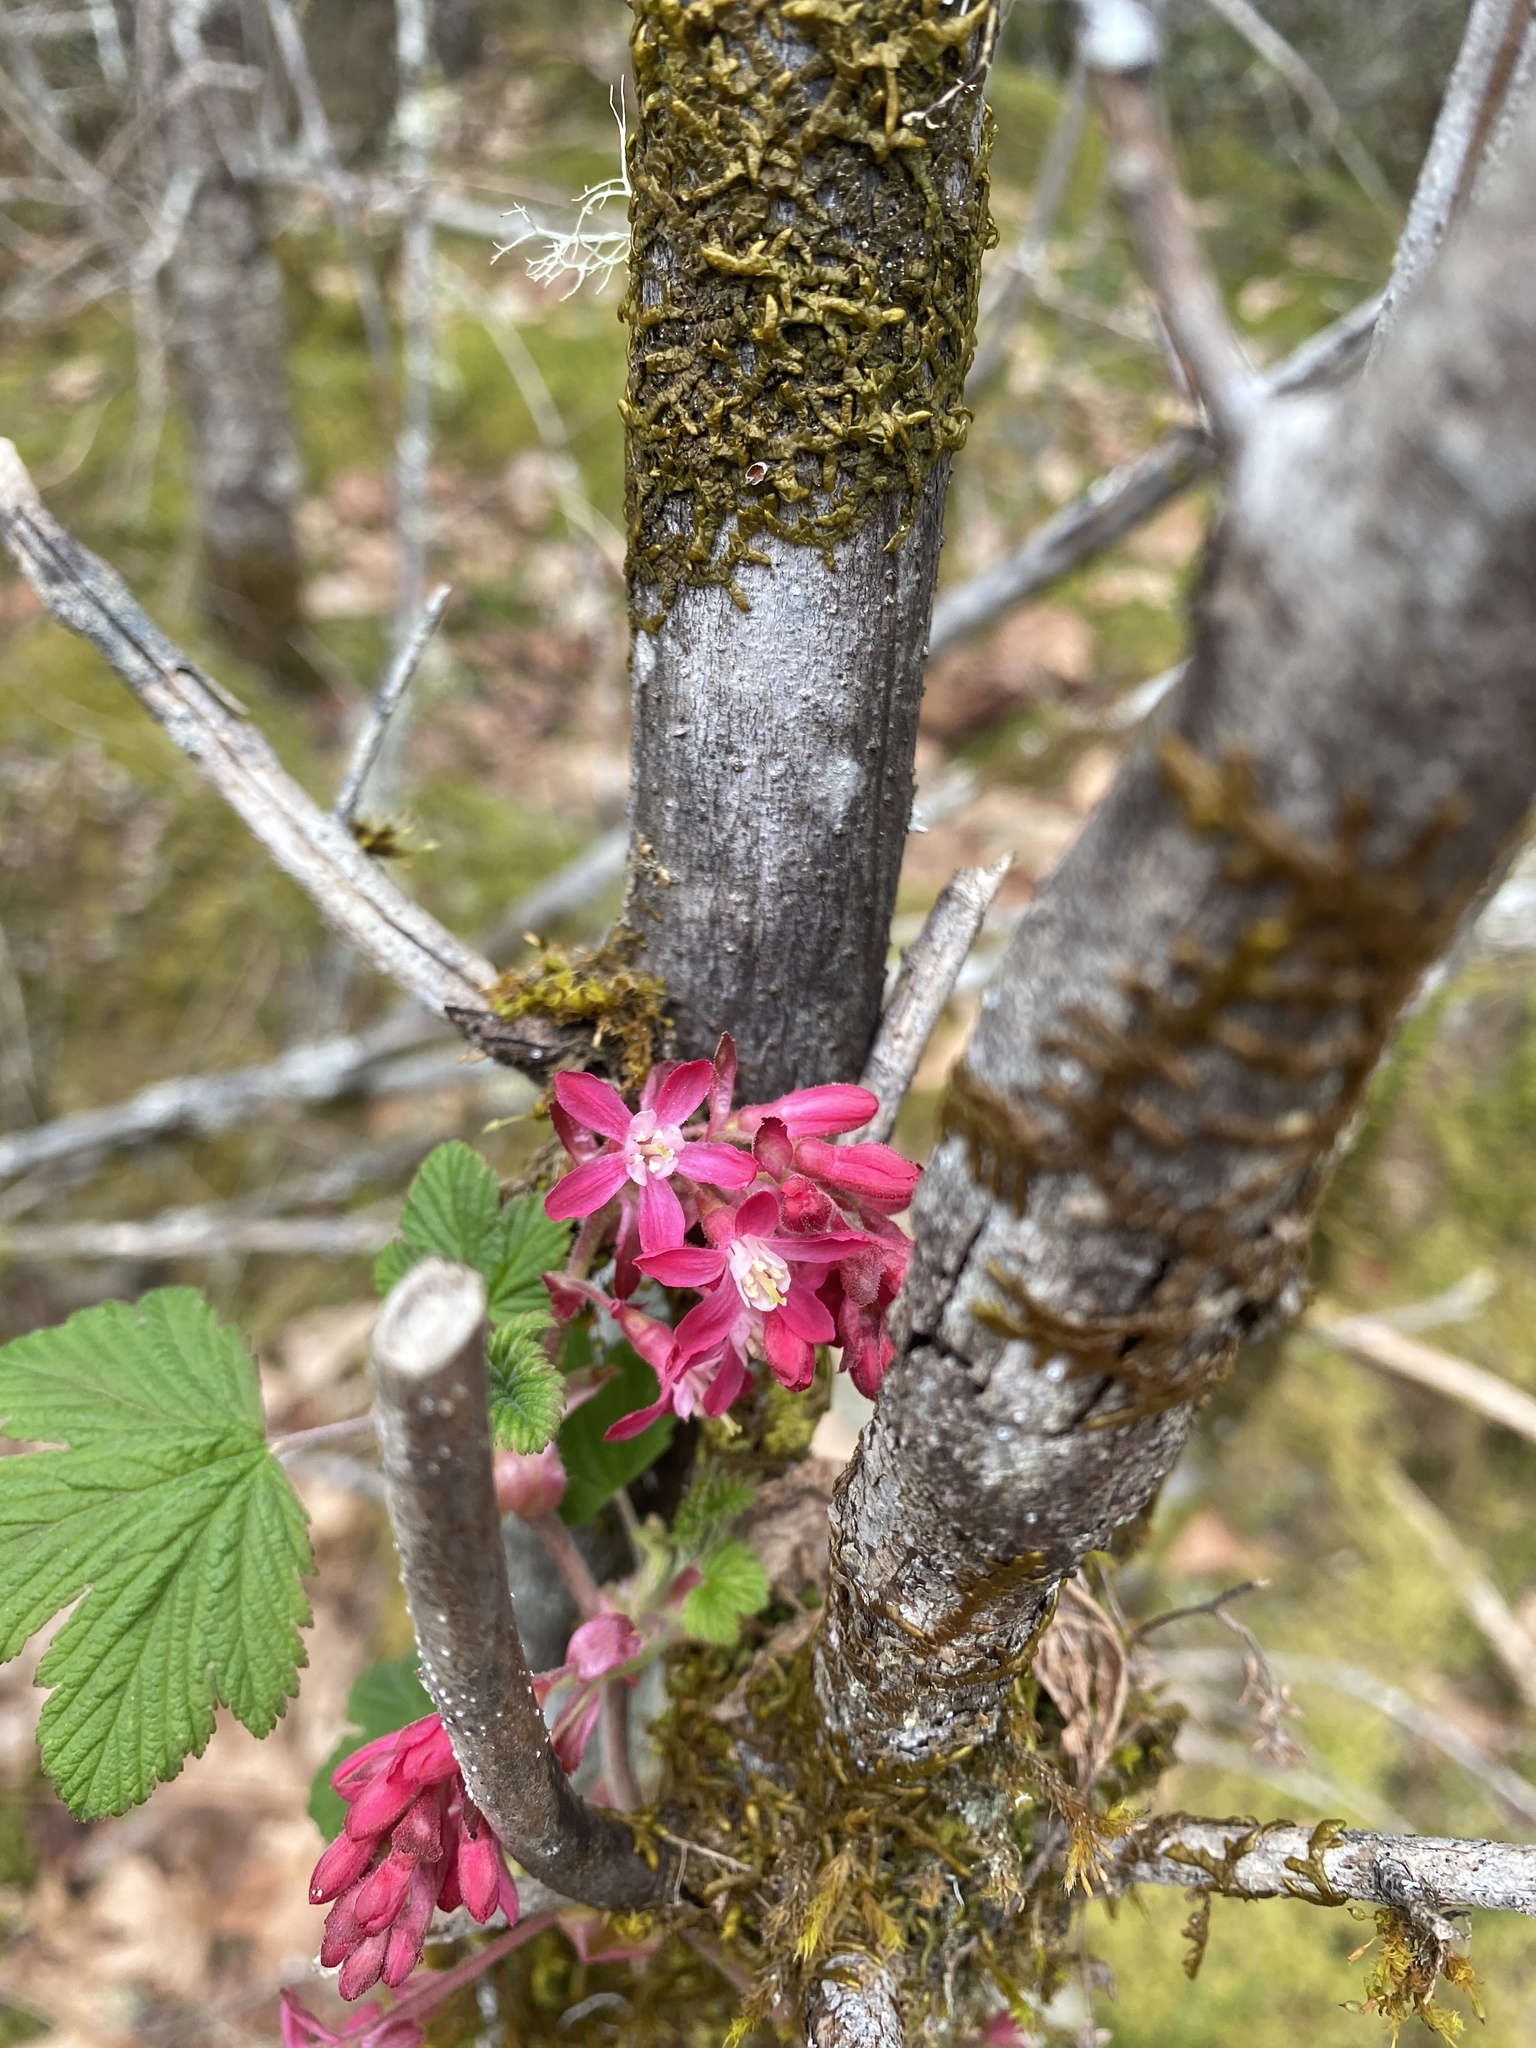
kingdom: Plantae
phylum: Tracheophyta
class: Magnoliopsida
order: Saxifragales
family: Grossulariaceae
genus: Ribes
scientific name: Ribes sanguineum
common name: Flowering currant
